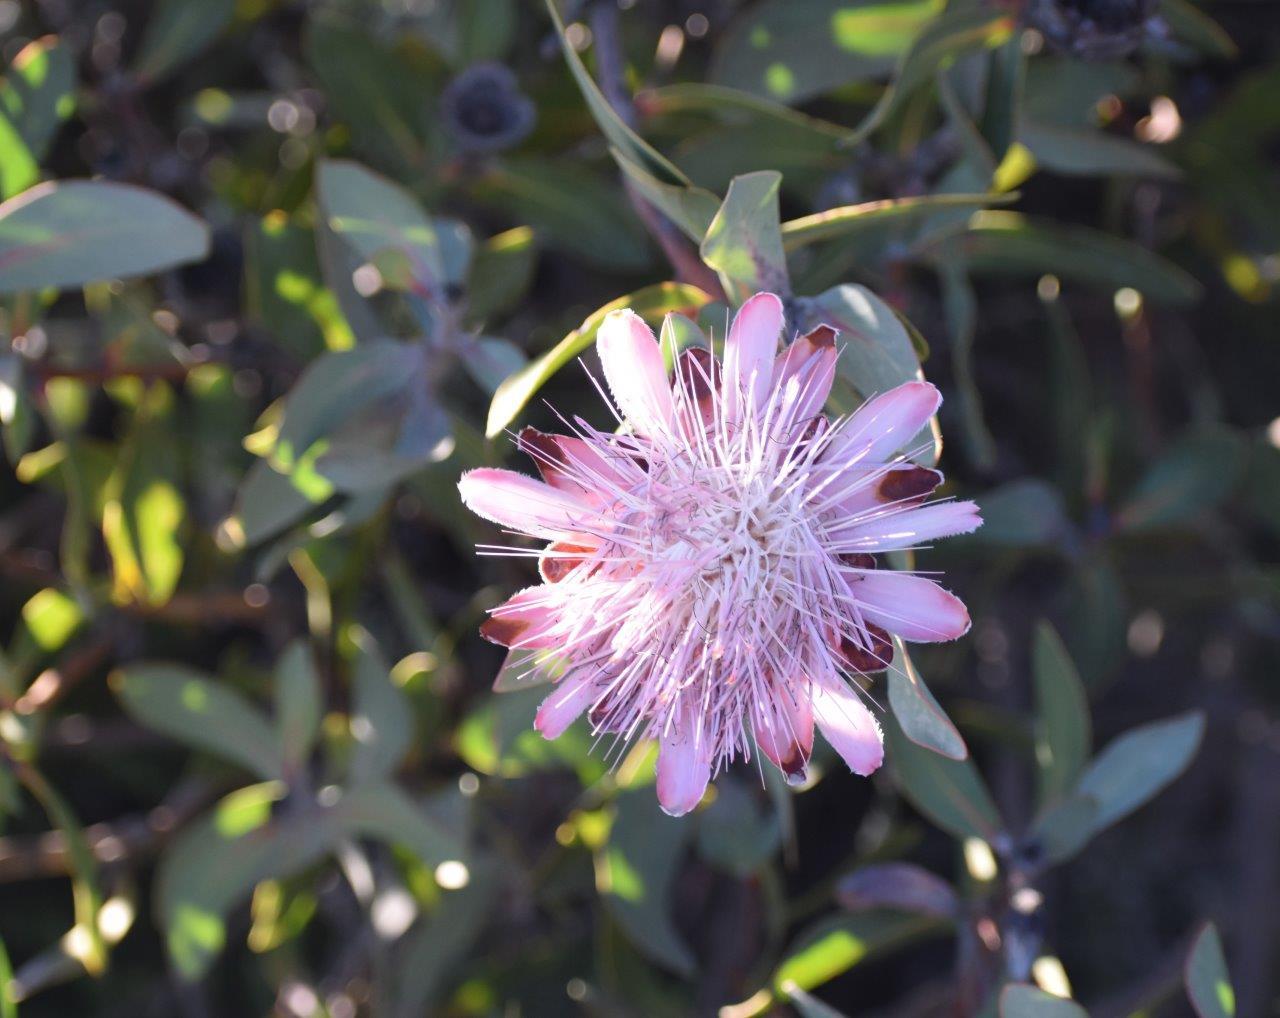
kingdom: Plantae
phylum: Tracheophyta
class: Magnoliopsida
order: Proteales
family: Proteaceae
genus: Protea
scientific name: Protea punctata
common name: Water sugarbush
